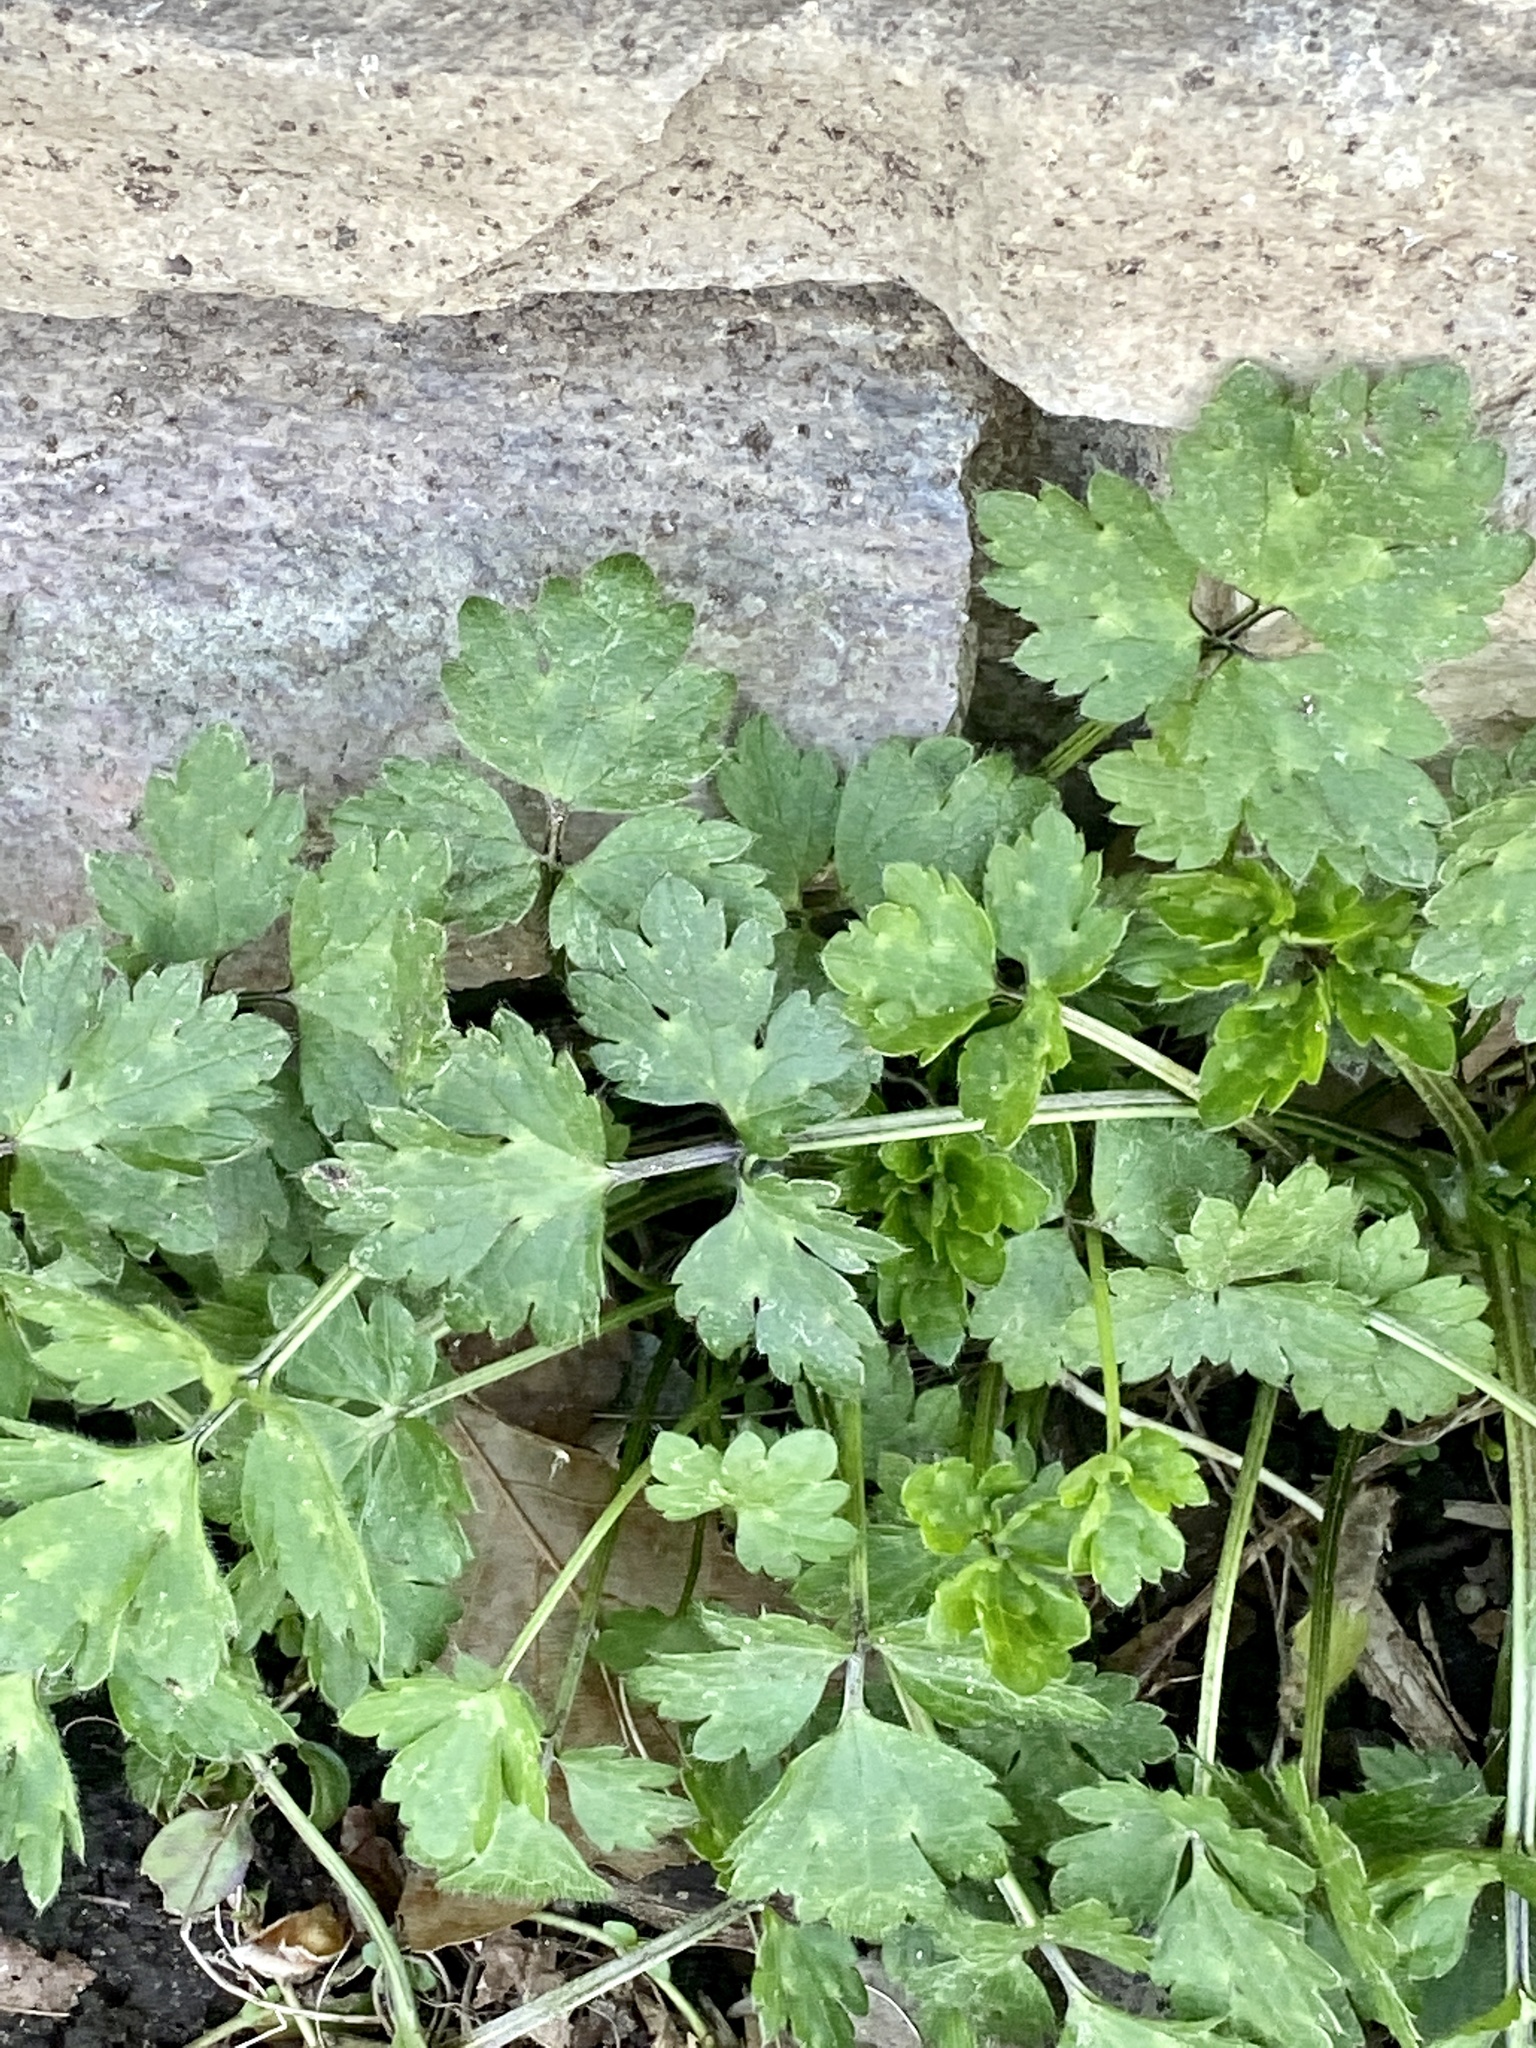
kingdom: Plantae
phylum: Tracheophyta
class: Magnoliopsida
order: Ranunculales
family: Ranunculaceae
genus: Ranunculus
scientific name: Ranunculus repens
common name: Creeping buttercup
